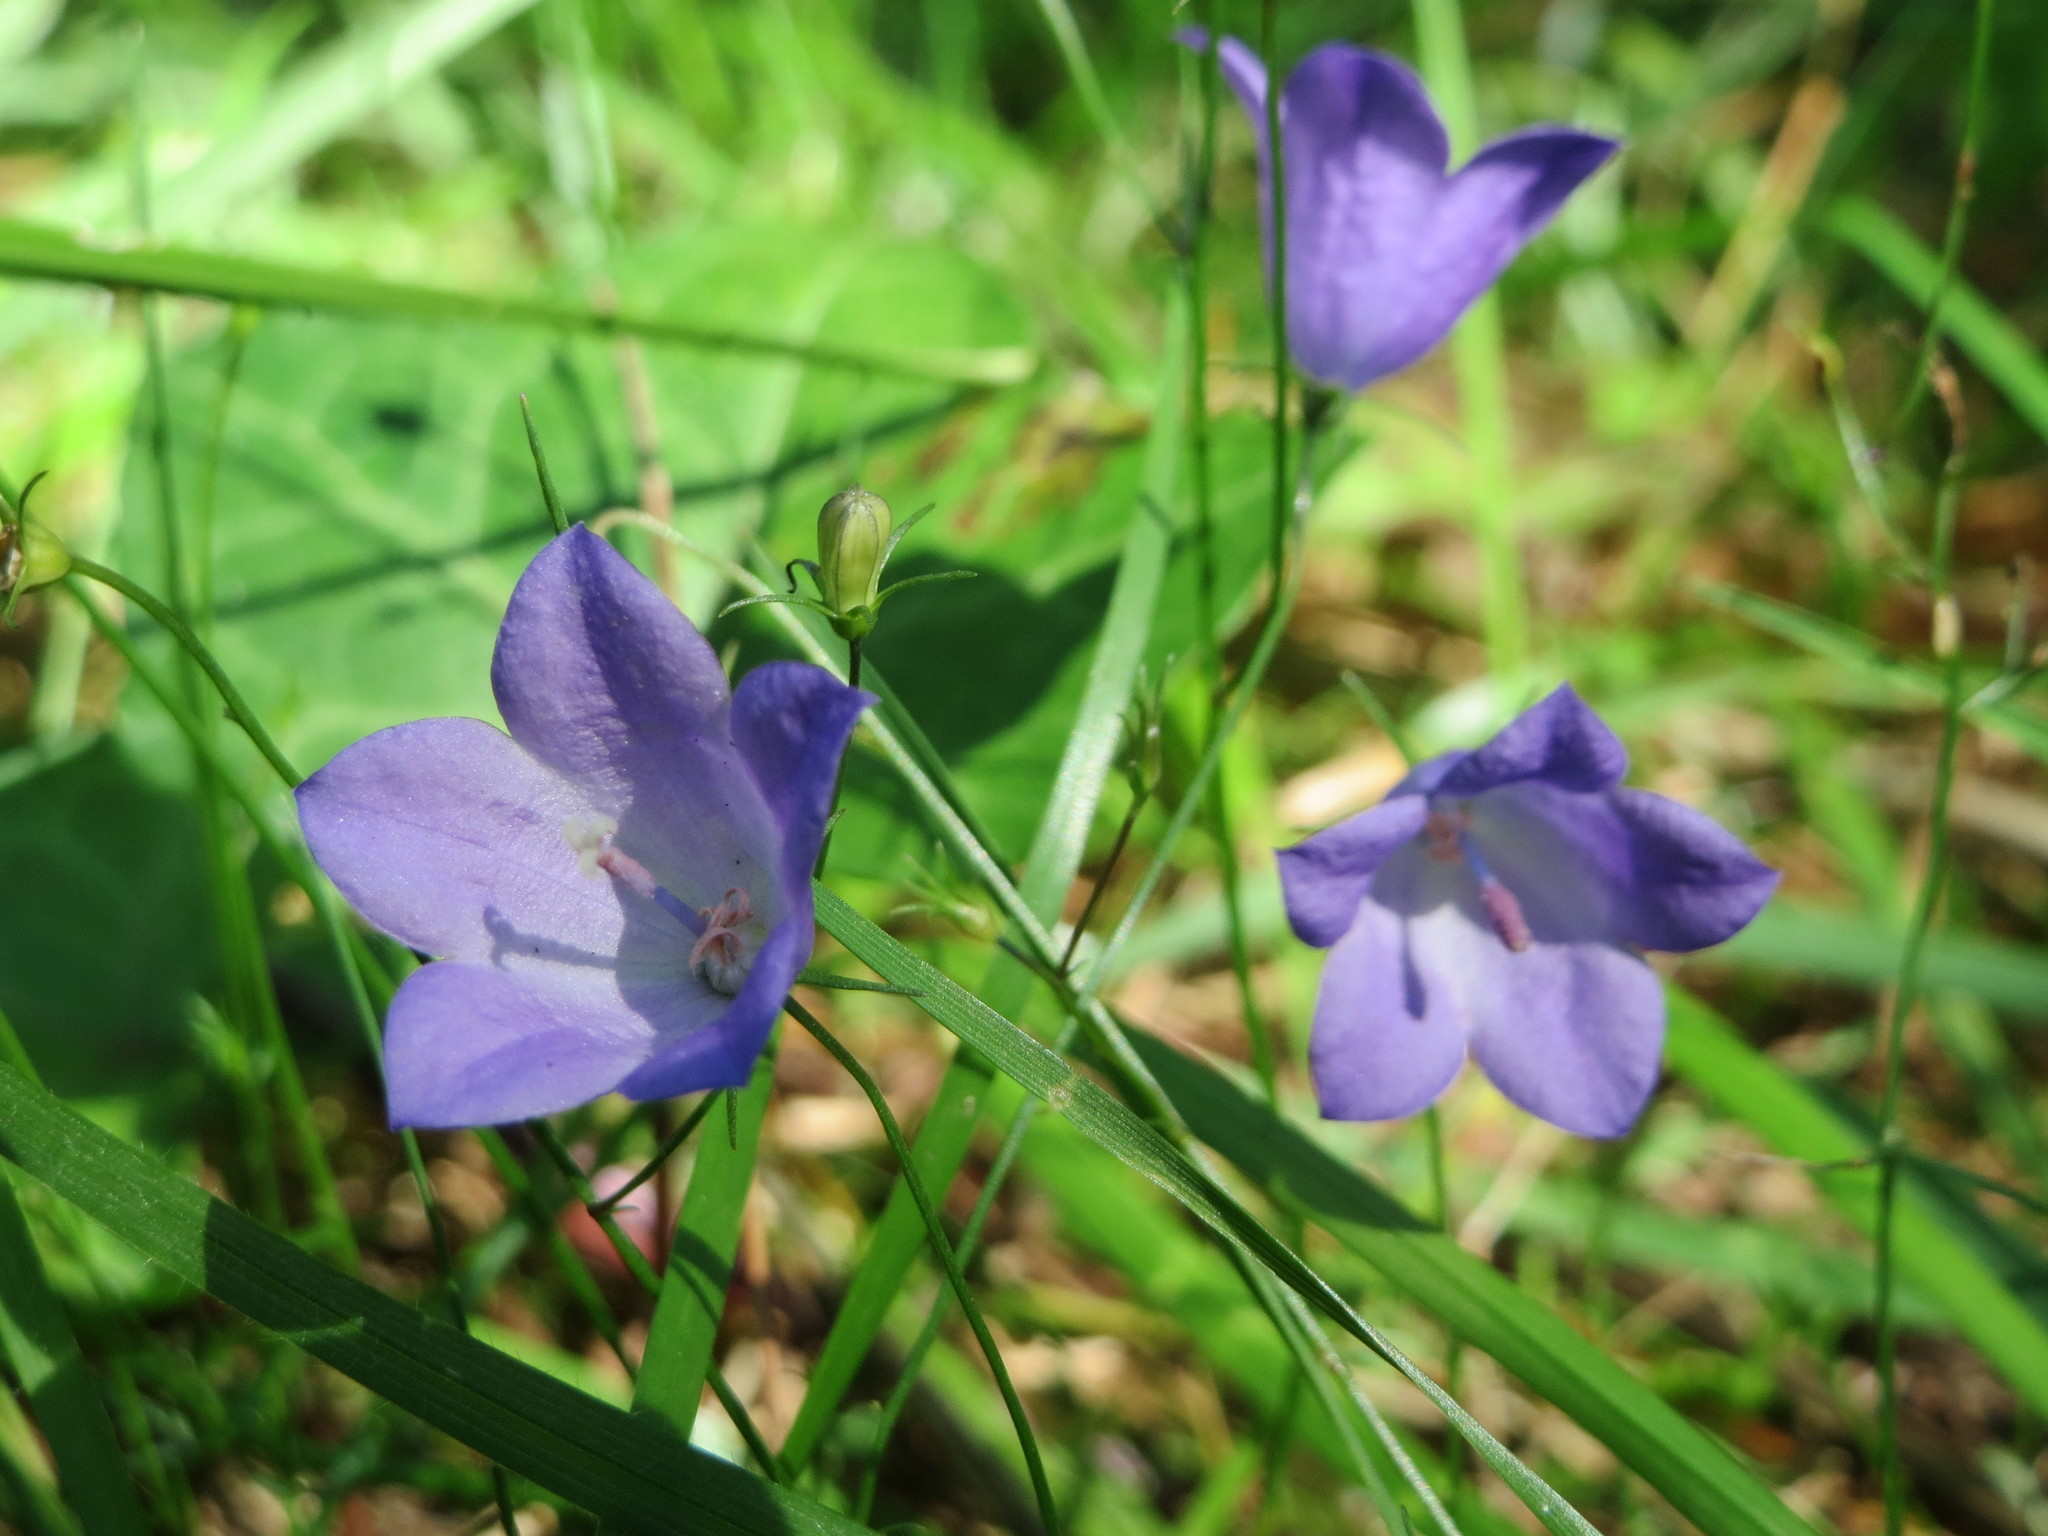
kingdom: Plantae
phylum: Tracheophyta
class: Magnoliopsida
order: Asterales
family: Campanulaceae
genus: Campanula
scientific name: Campanula rotundifolia
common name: Harebell
